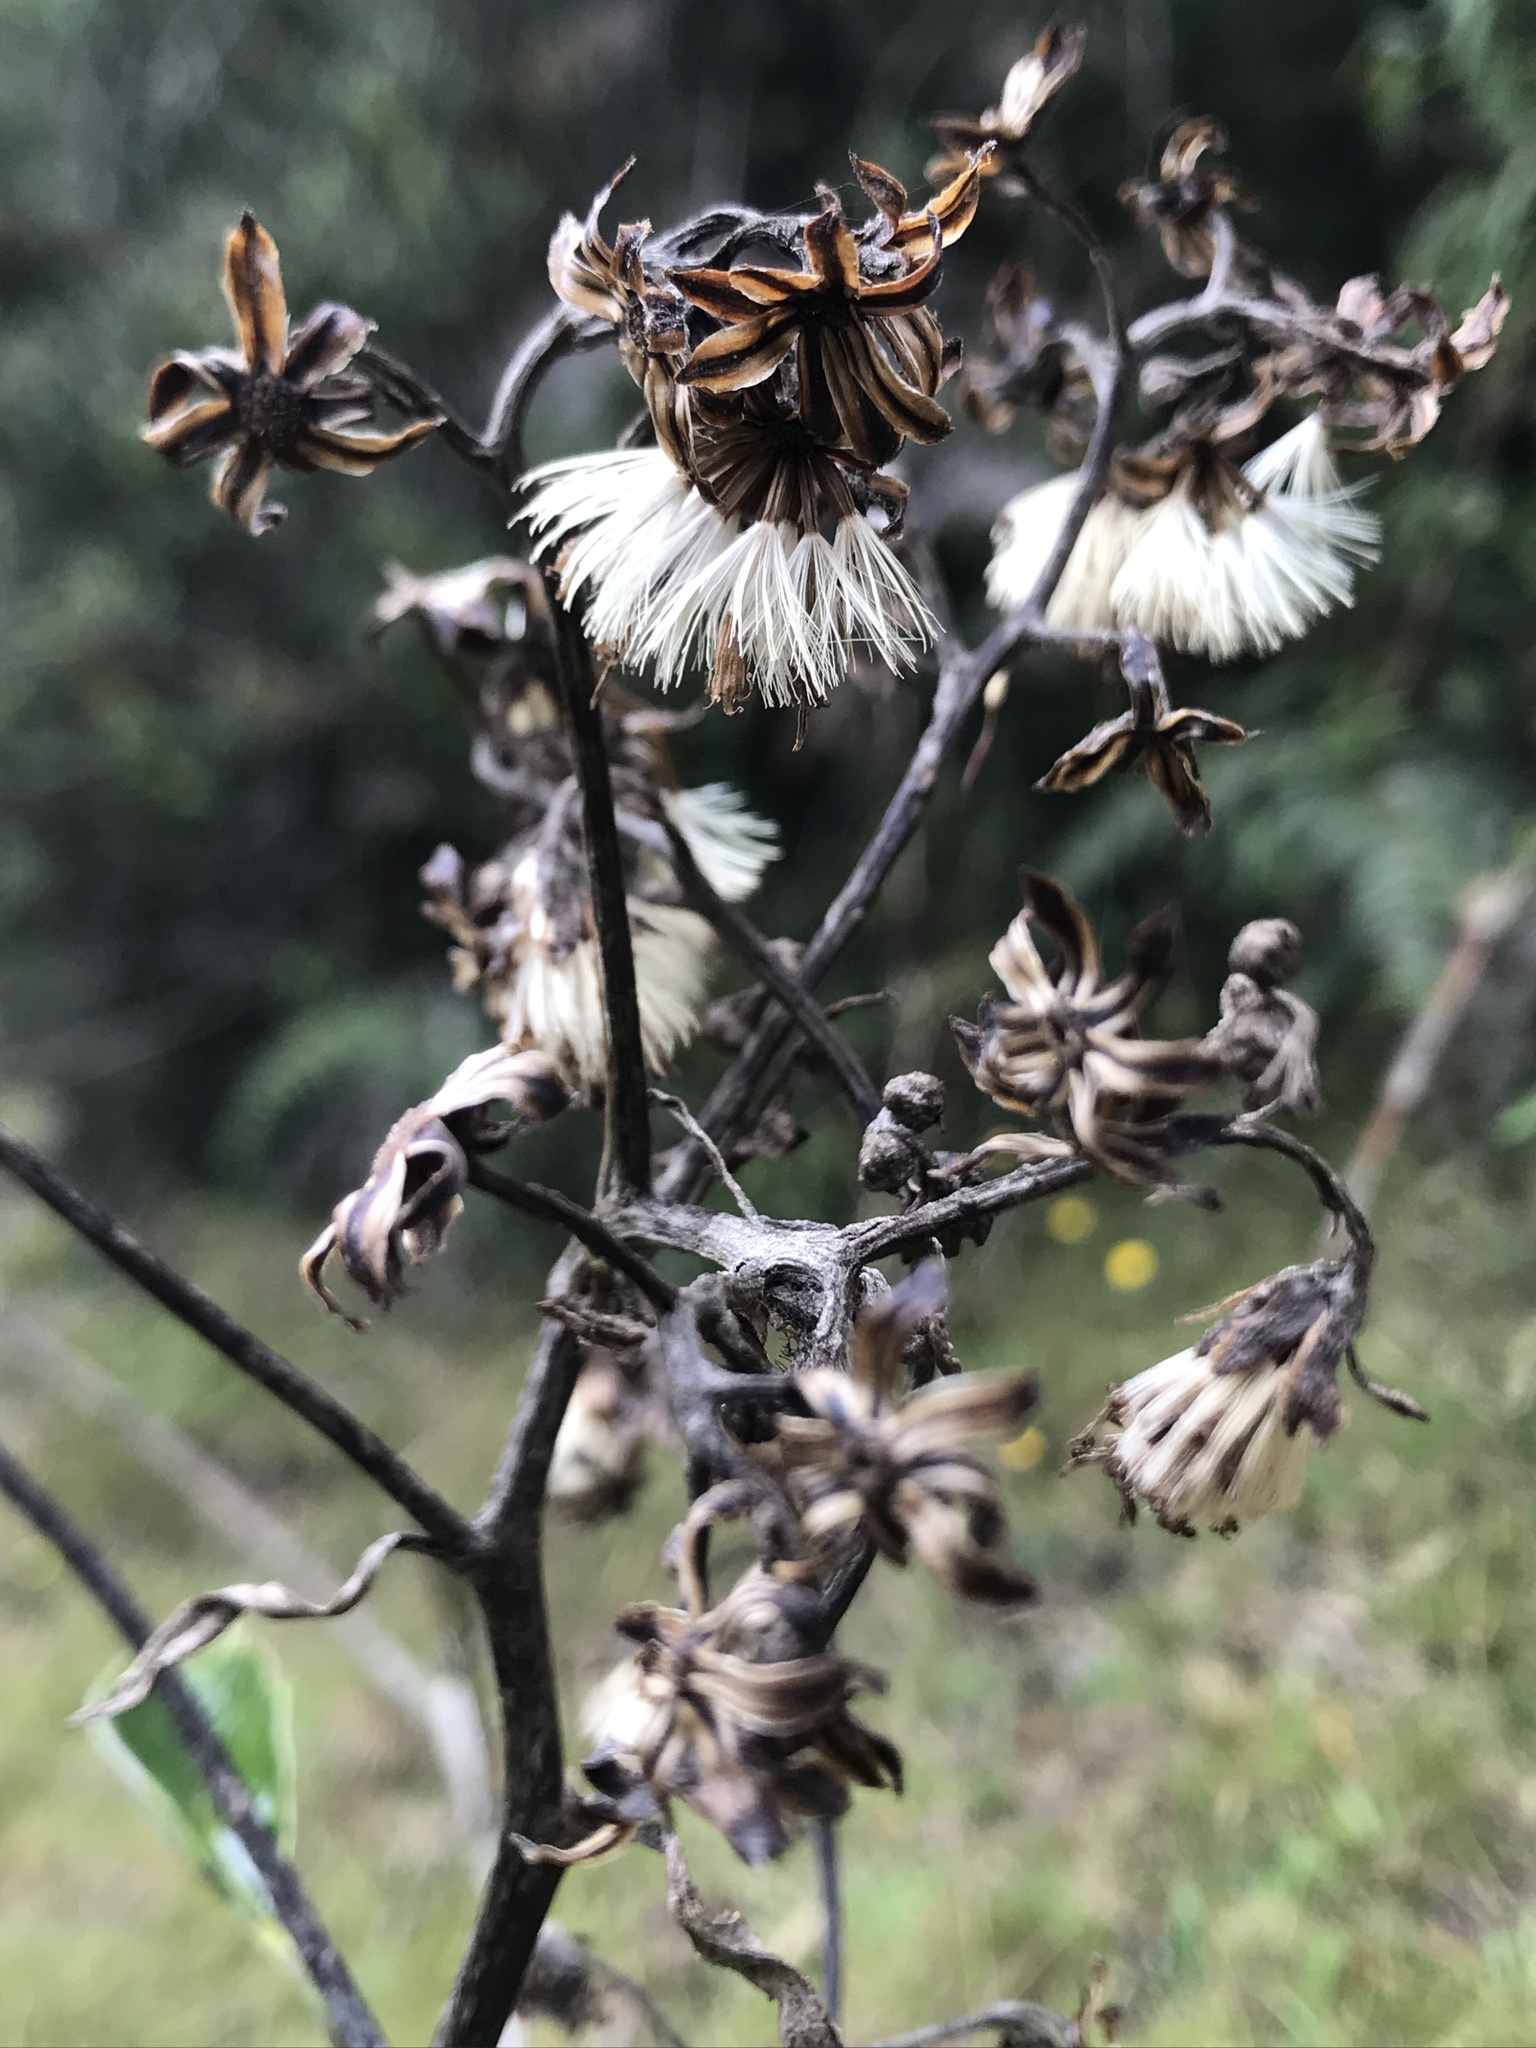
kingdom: Plantae
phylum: Tracheophyta
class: Magnoliopsida
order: Asterales
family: Asteraceae
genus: Dendrophorbium
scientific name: Dendrophorbium americanum
